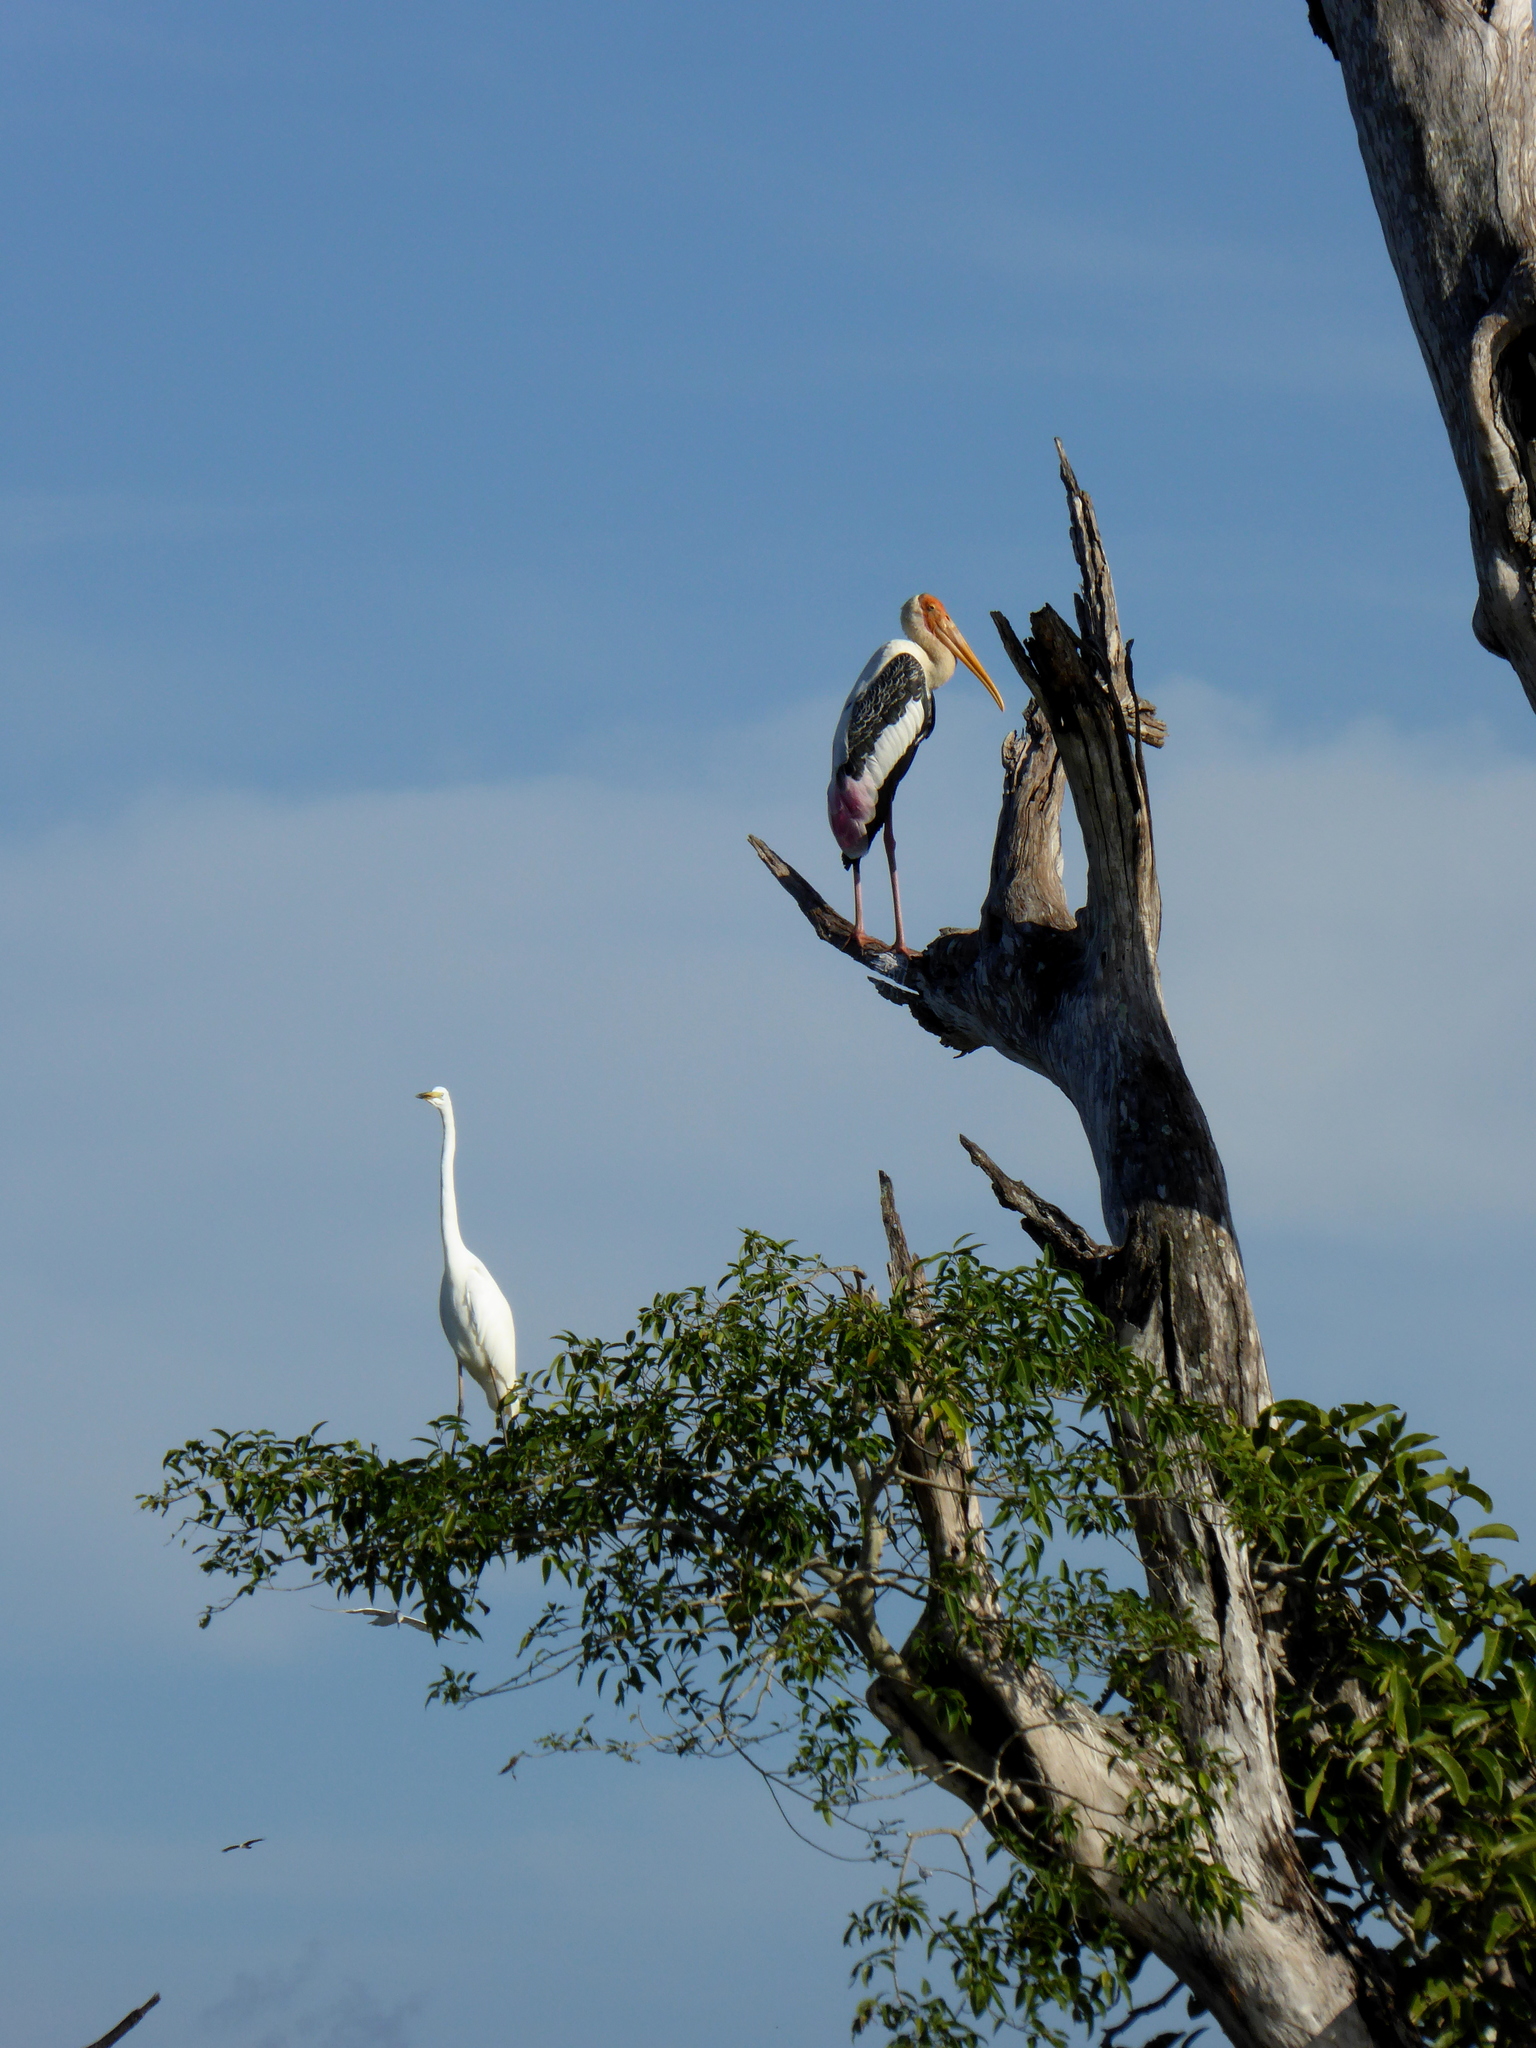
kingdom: Animalia
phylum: Chordata
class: Aves
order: Ciconiiformes
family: Ciconiidae
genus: Mycteria
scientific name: Mycteria leucocephala
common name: Painted stork
